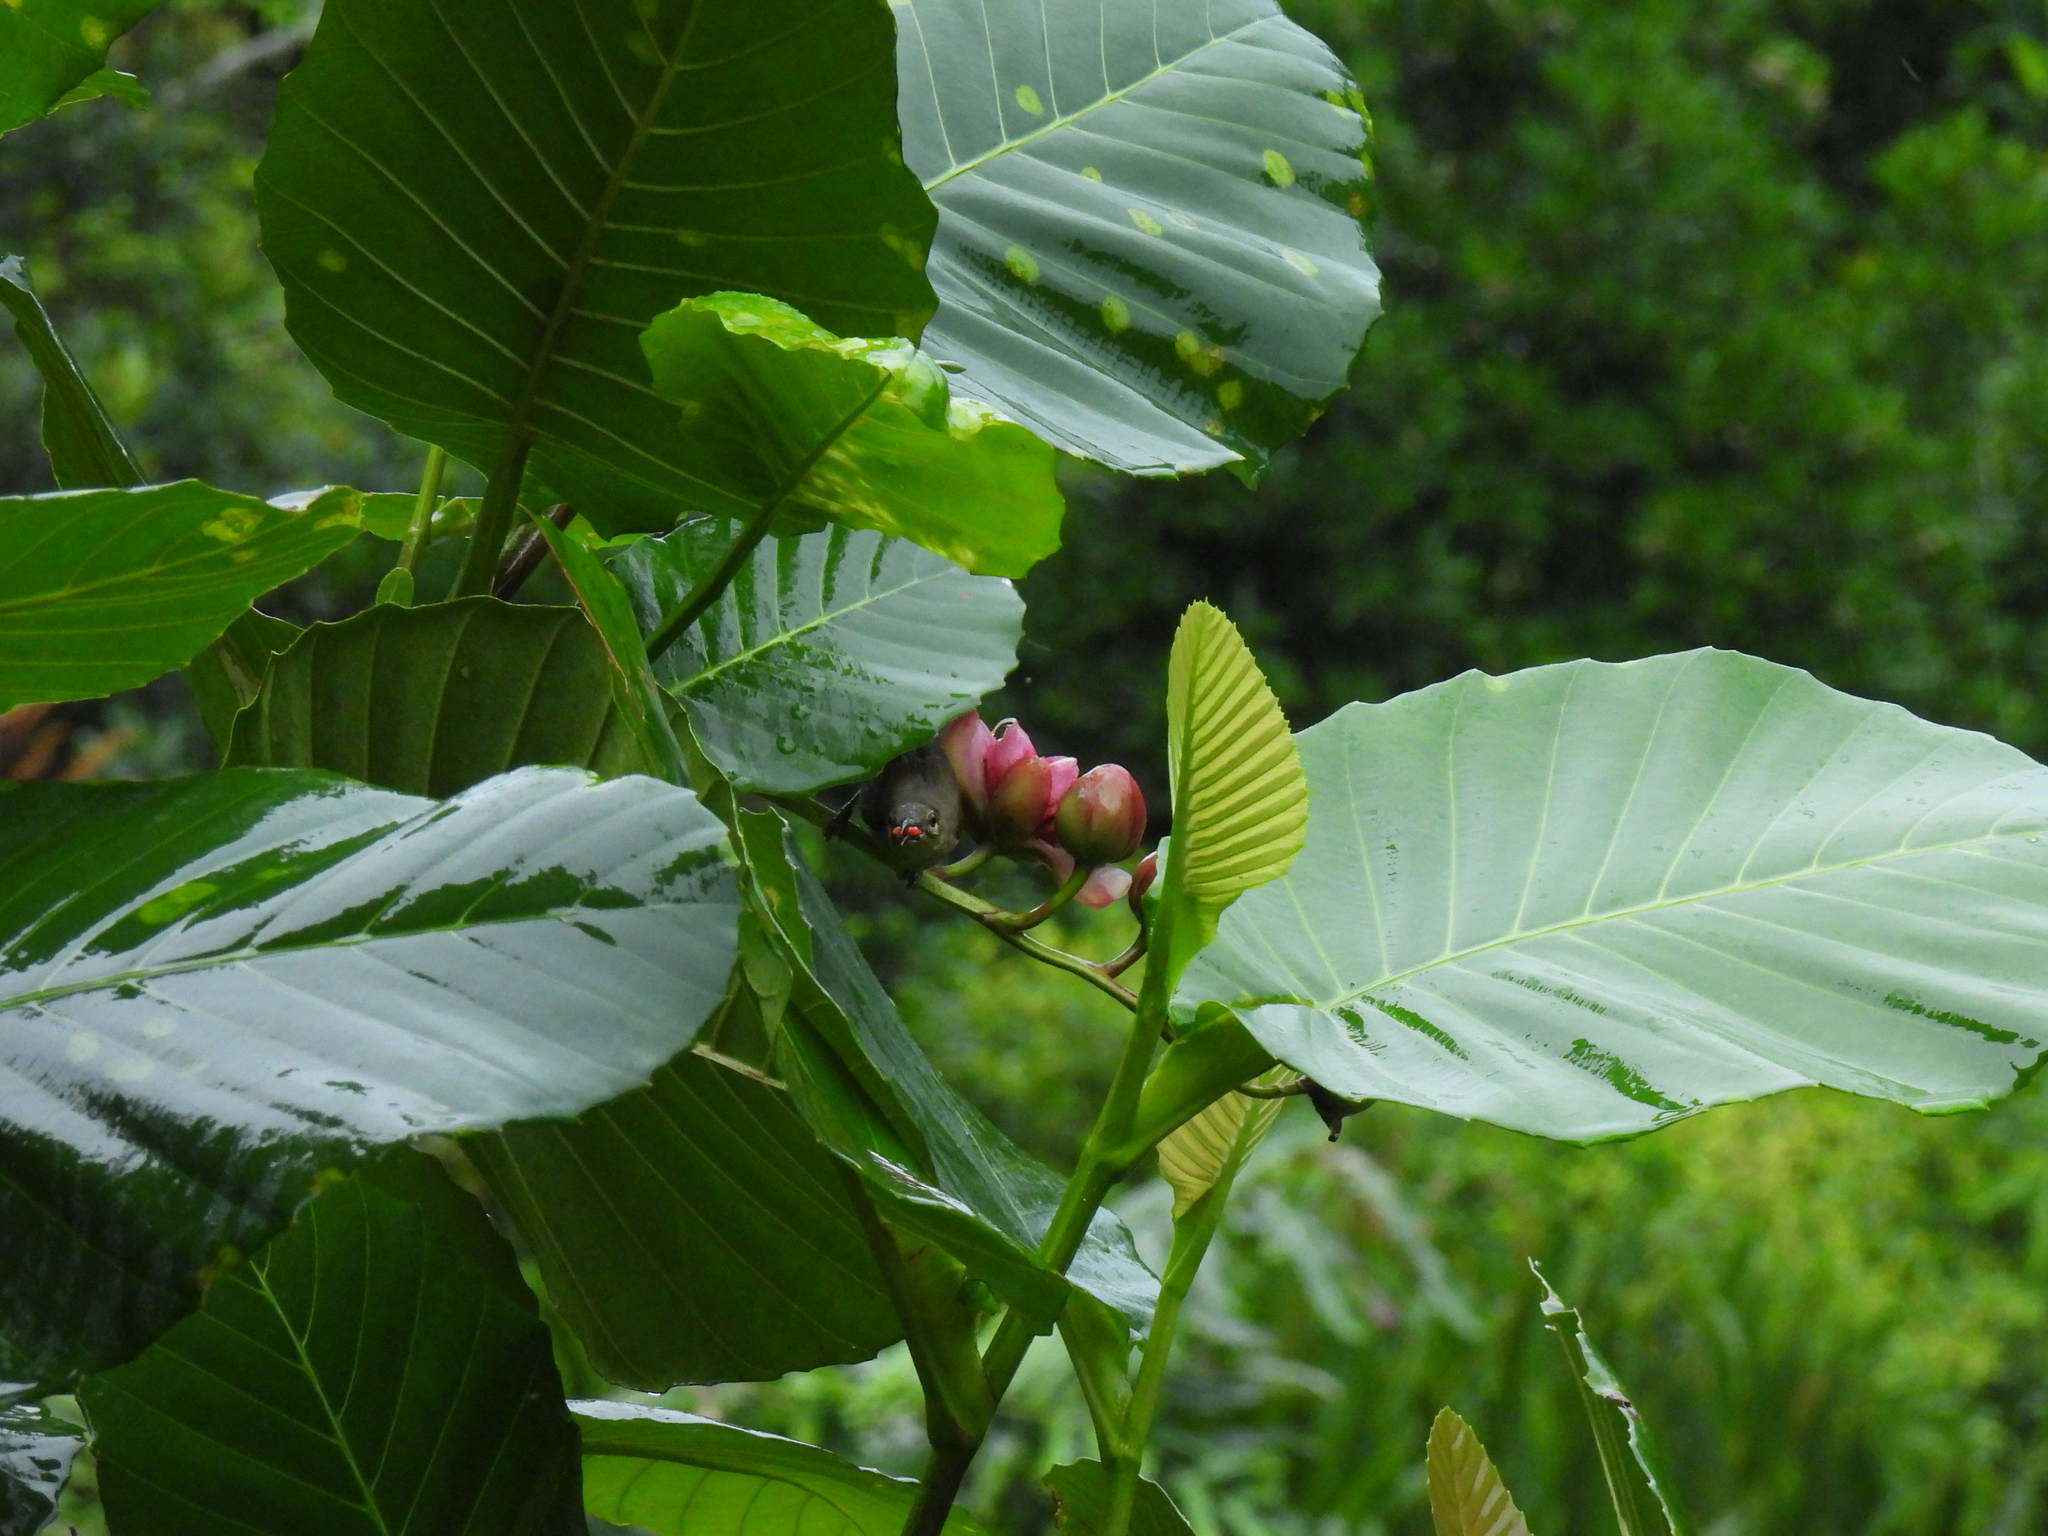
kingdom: Animalia
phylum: Chordata
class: Aves
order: Passeriformes
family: Nectariniidae
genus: Anthreptes
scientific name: Anthreptes malacensis
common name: Brown-throated sunbird
